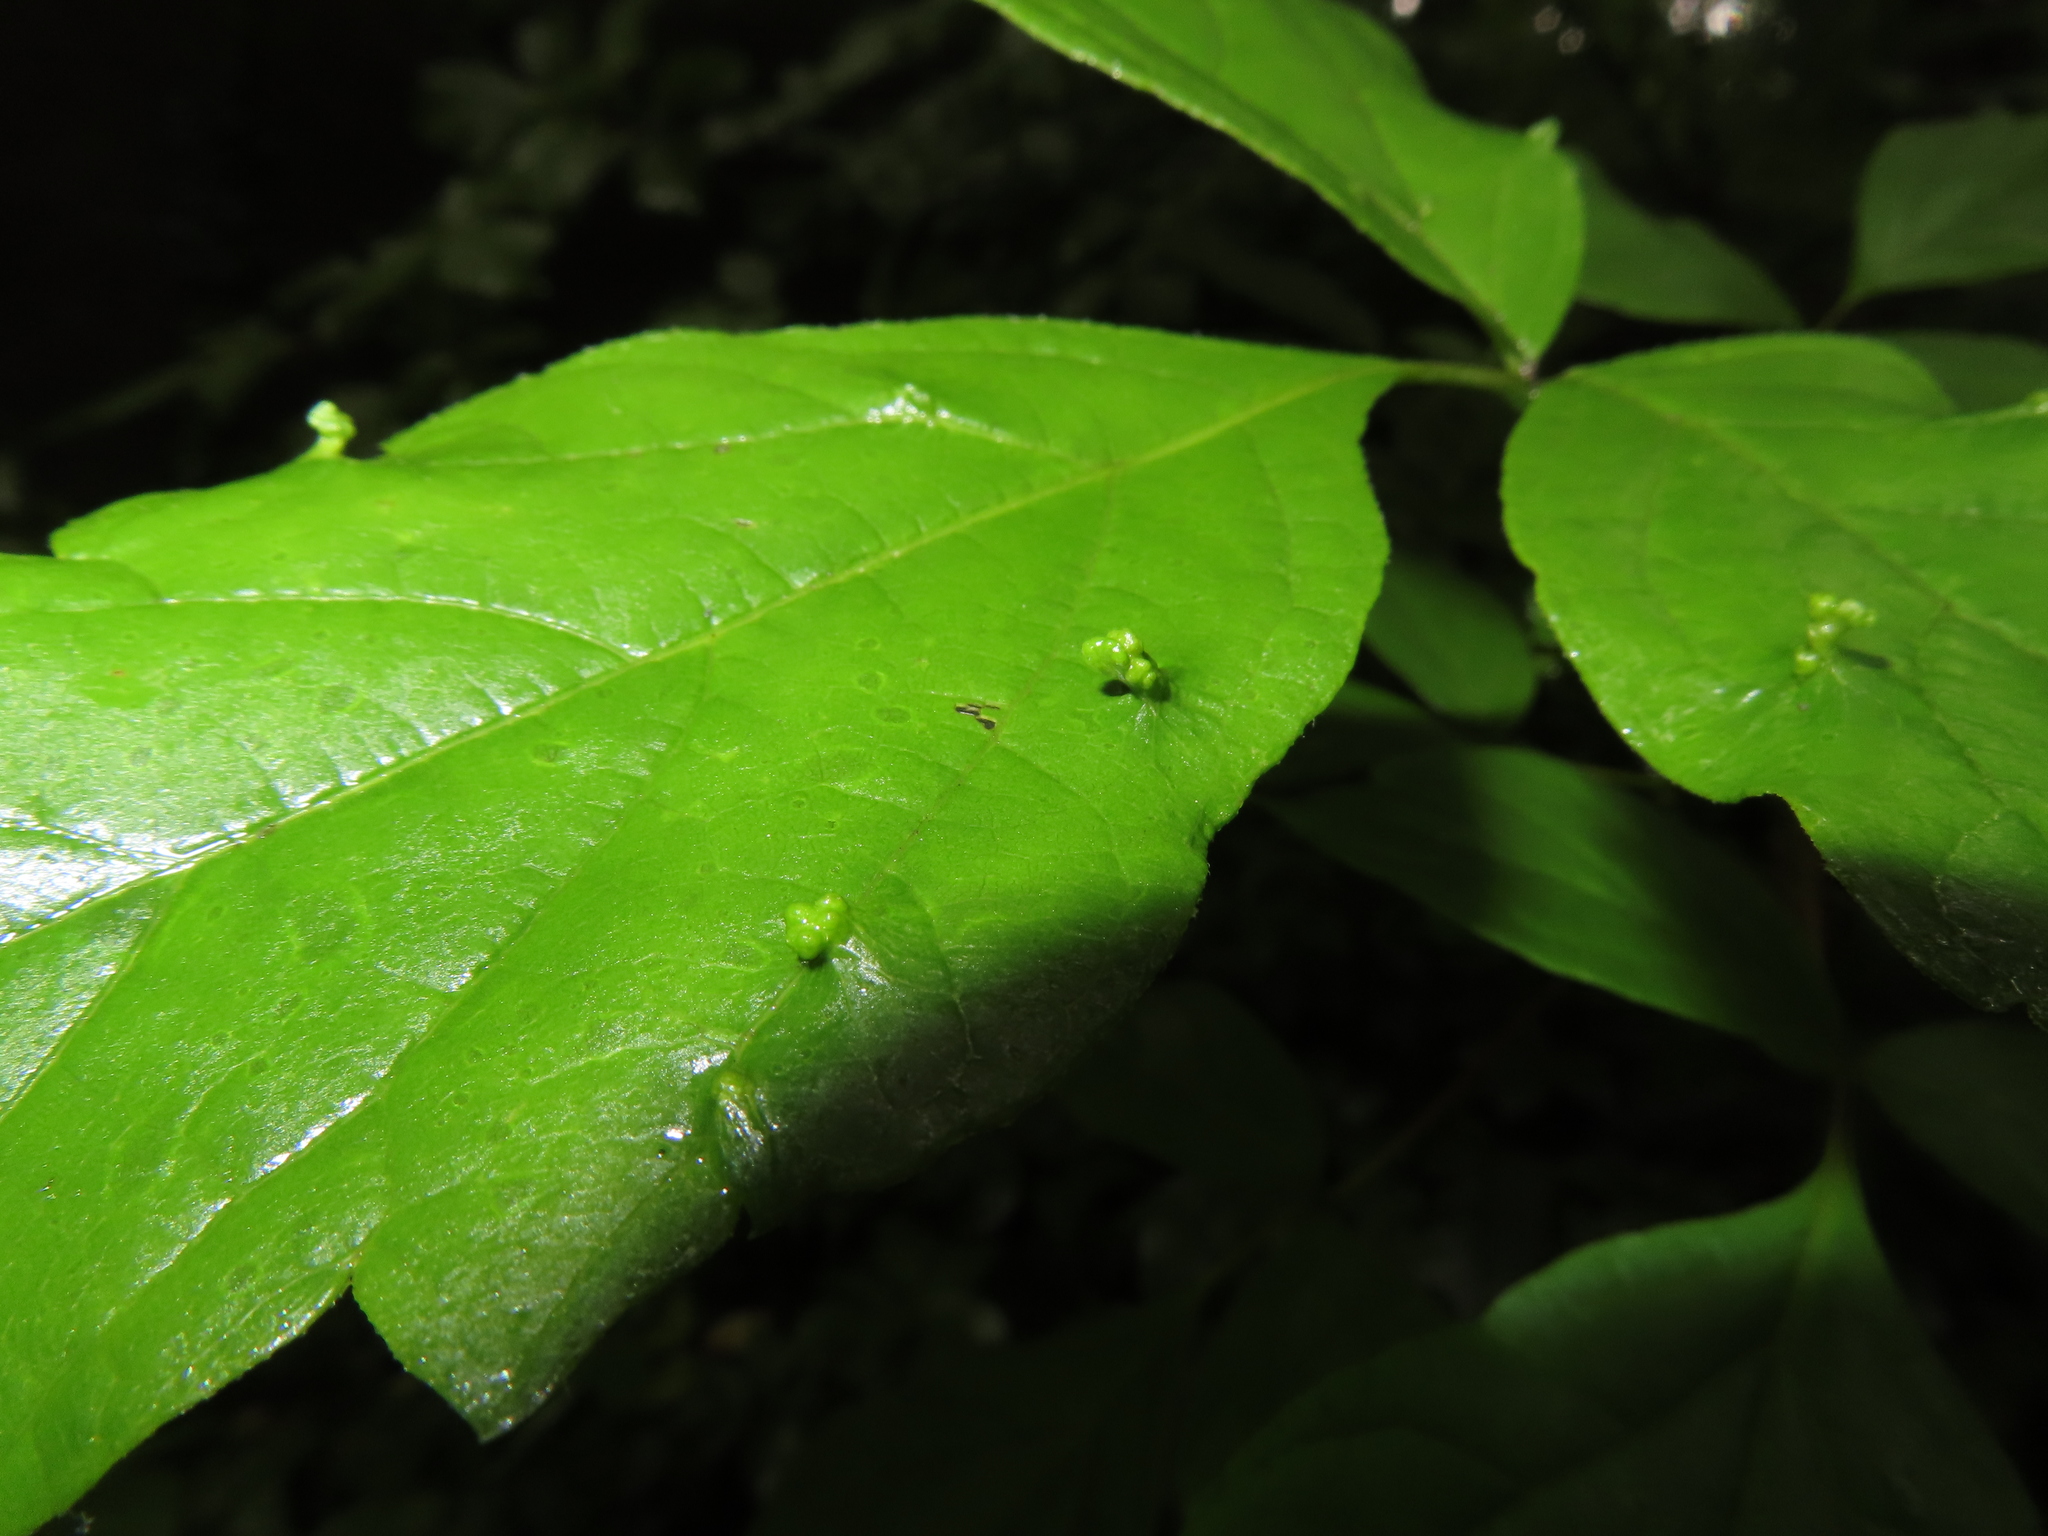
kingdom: Animalia
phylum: Arthropoda
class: Arachnida
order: Trombidiformes
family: Eriophyidae
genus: Aceria
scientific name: Aceria
